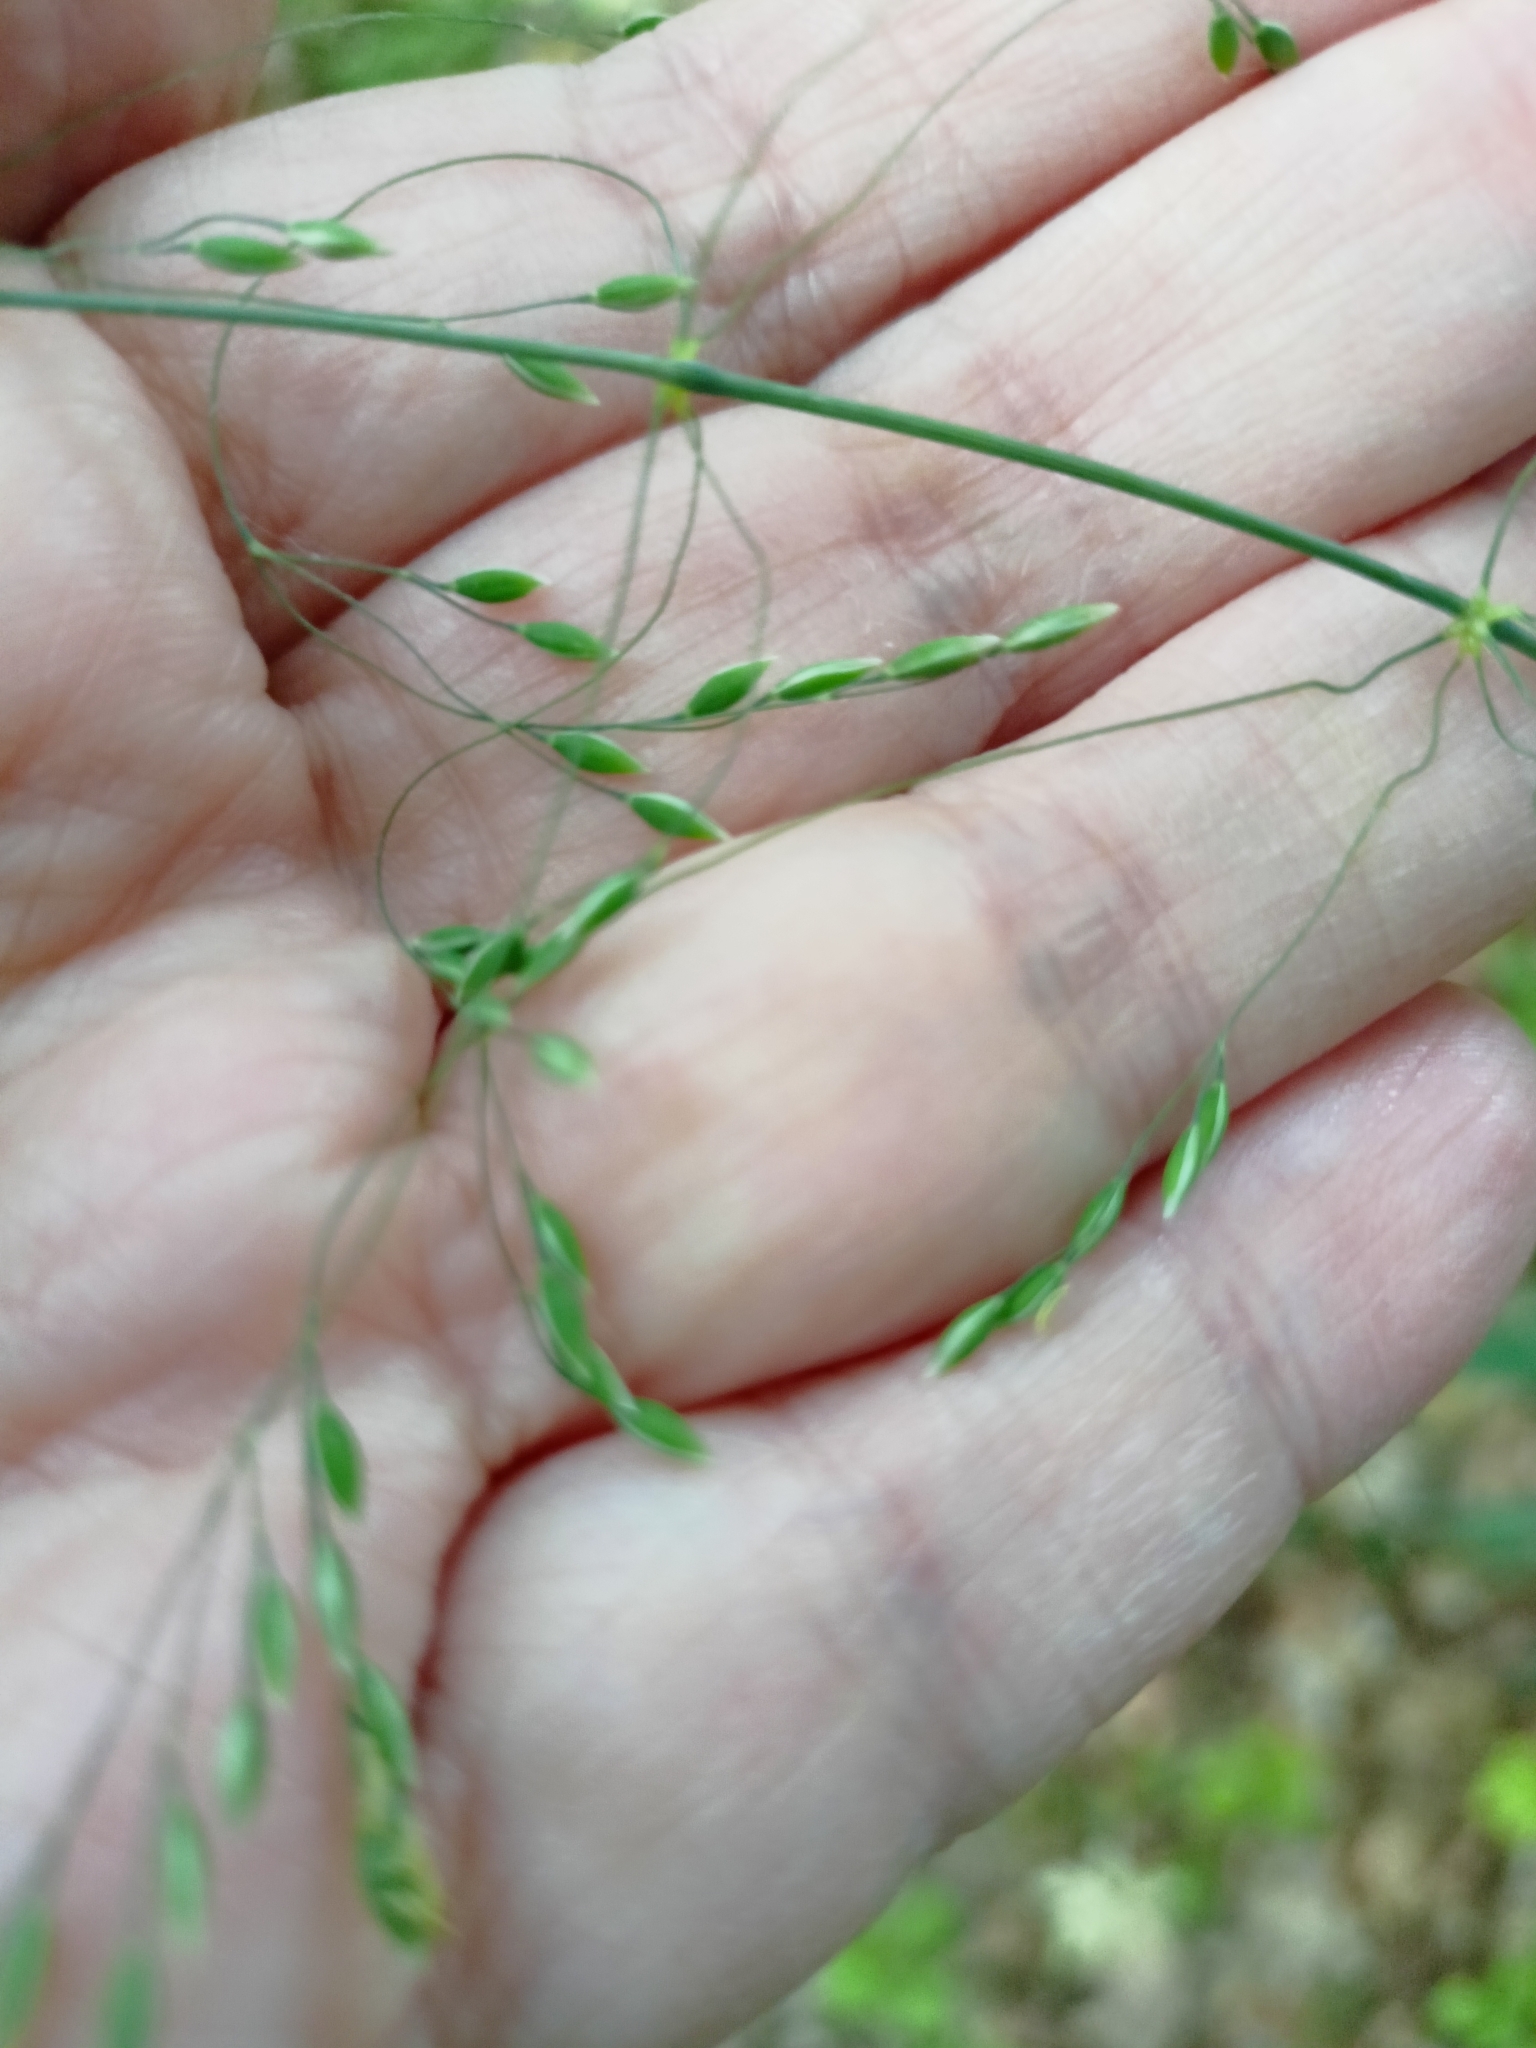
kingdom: Plantae
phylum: Tracheophyta
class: Liliopsida
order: Poales
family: Poaceae
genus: Milium
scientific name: Milium effusum
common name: Wood millet
